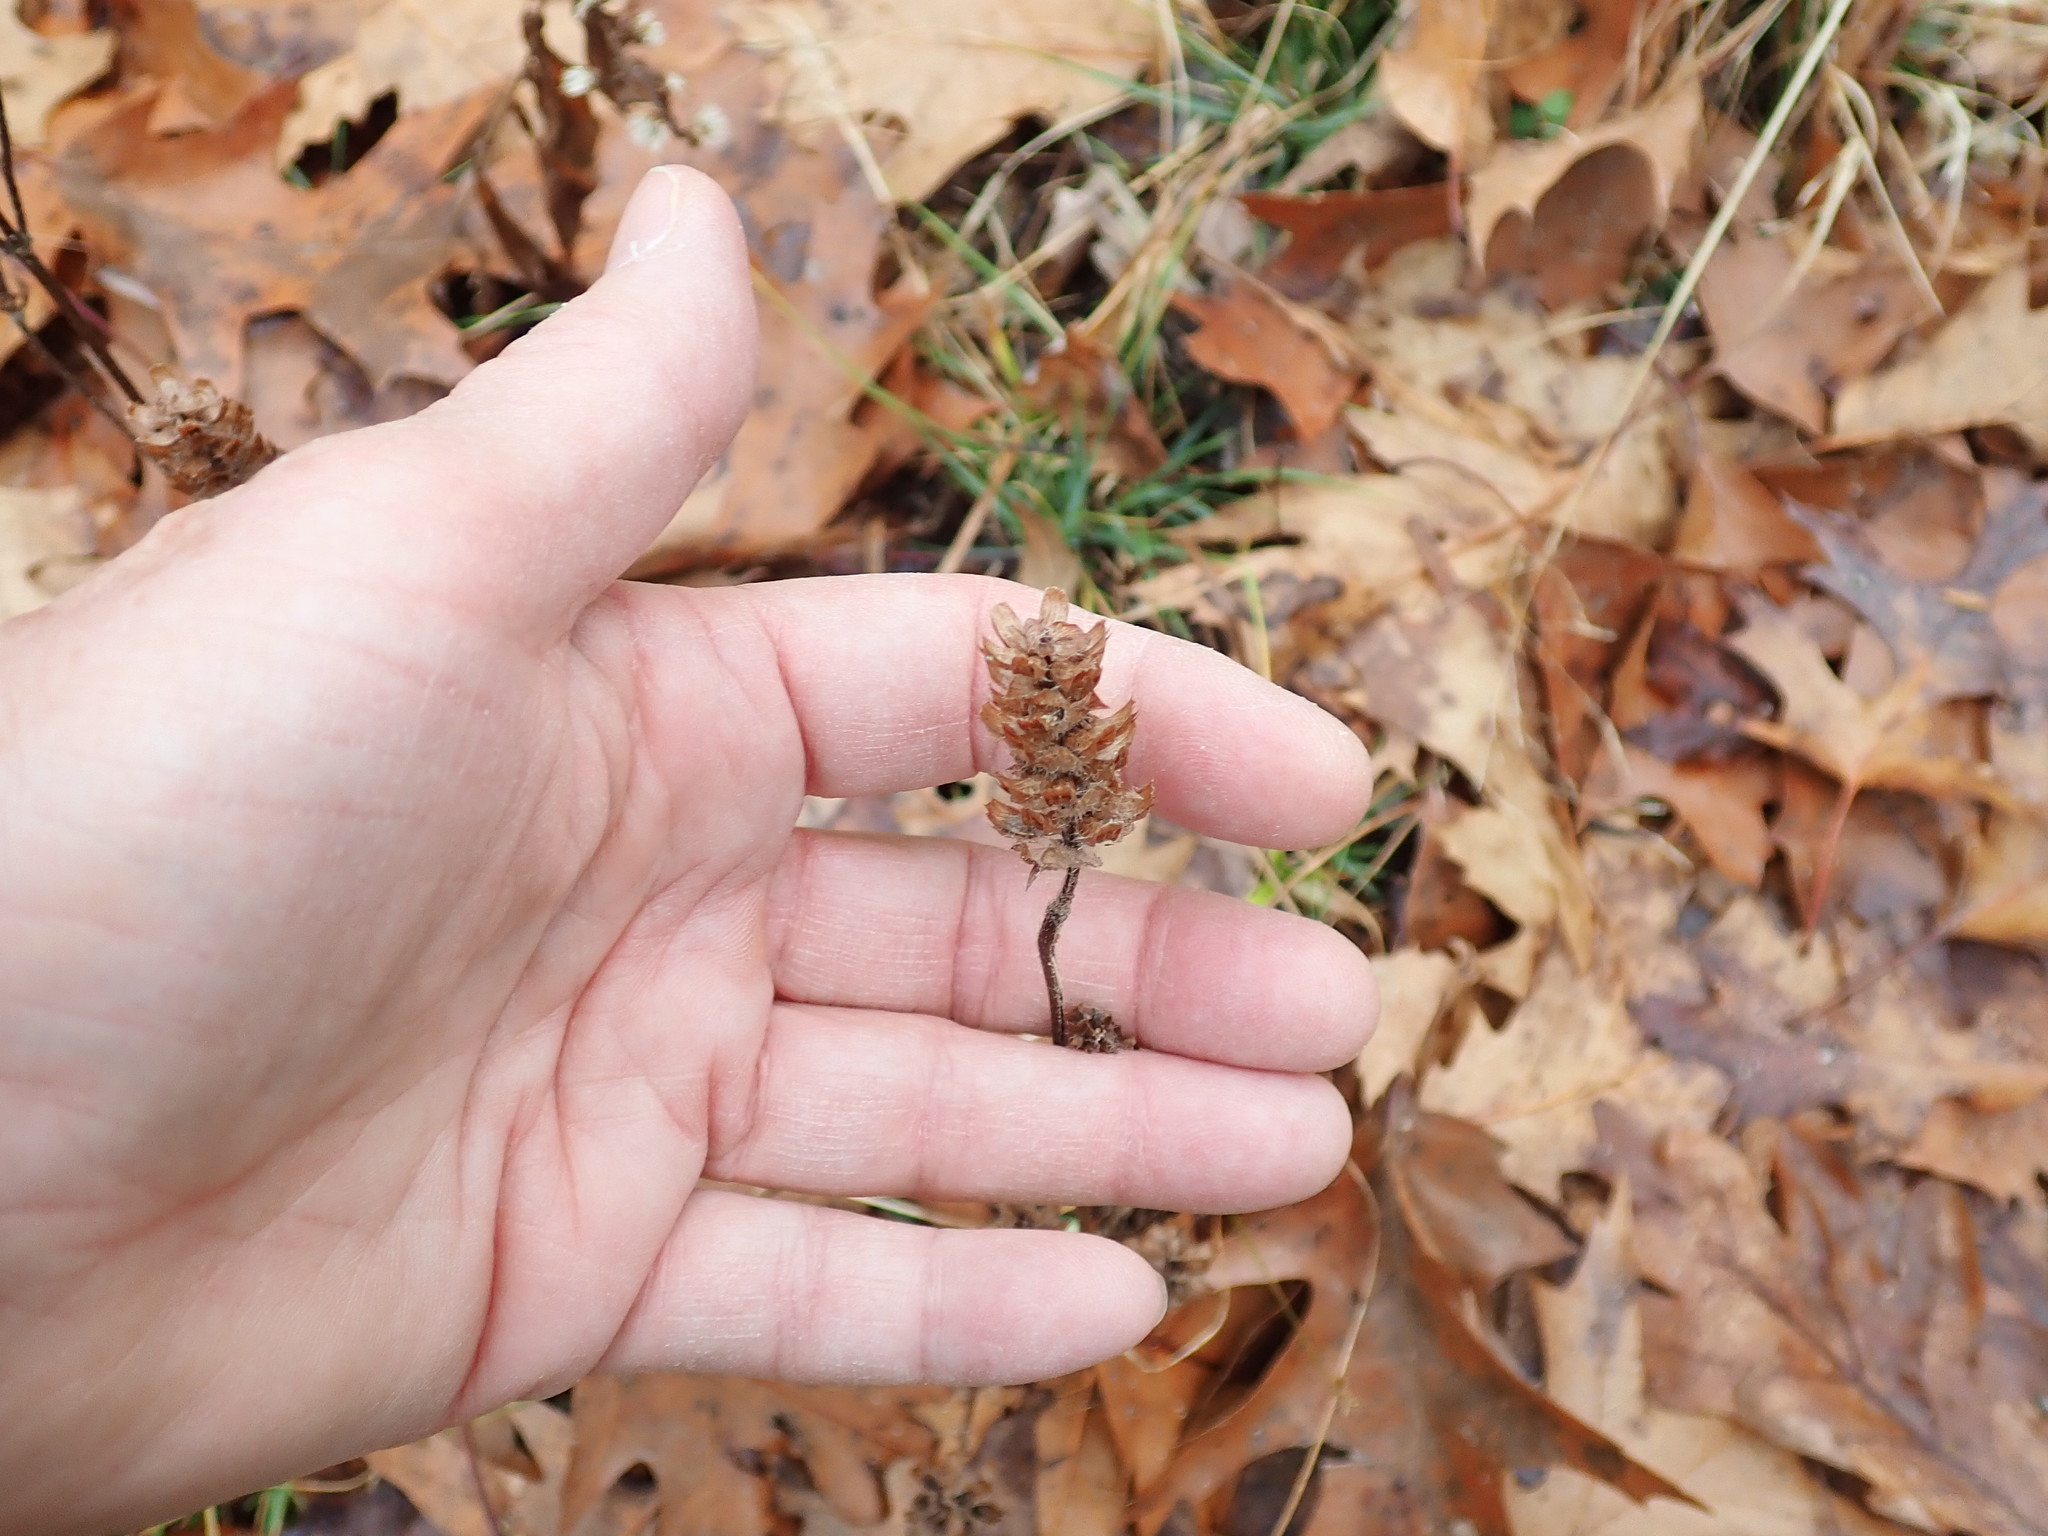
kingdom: Plantae
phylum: Tracheophyta
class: Magnoliopsida
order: Lamiales
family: Lamiaceae
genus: Prunella
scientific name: Prunella vulgaris
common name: Heal-all
